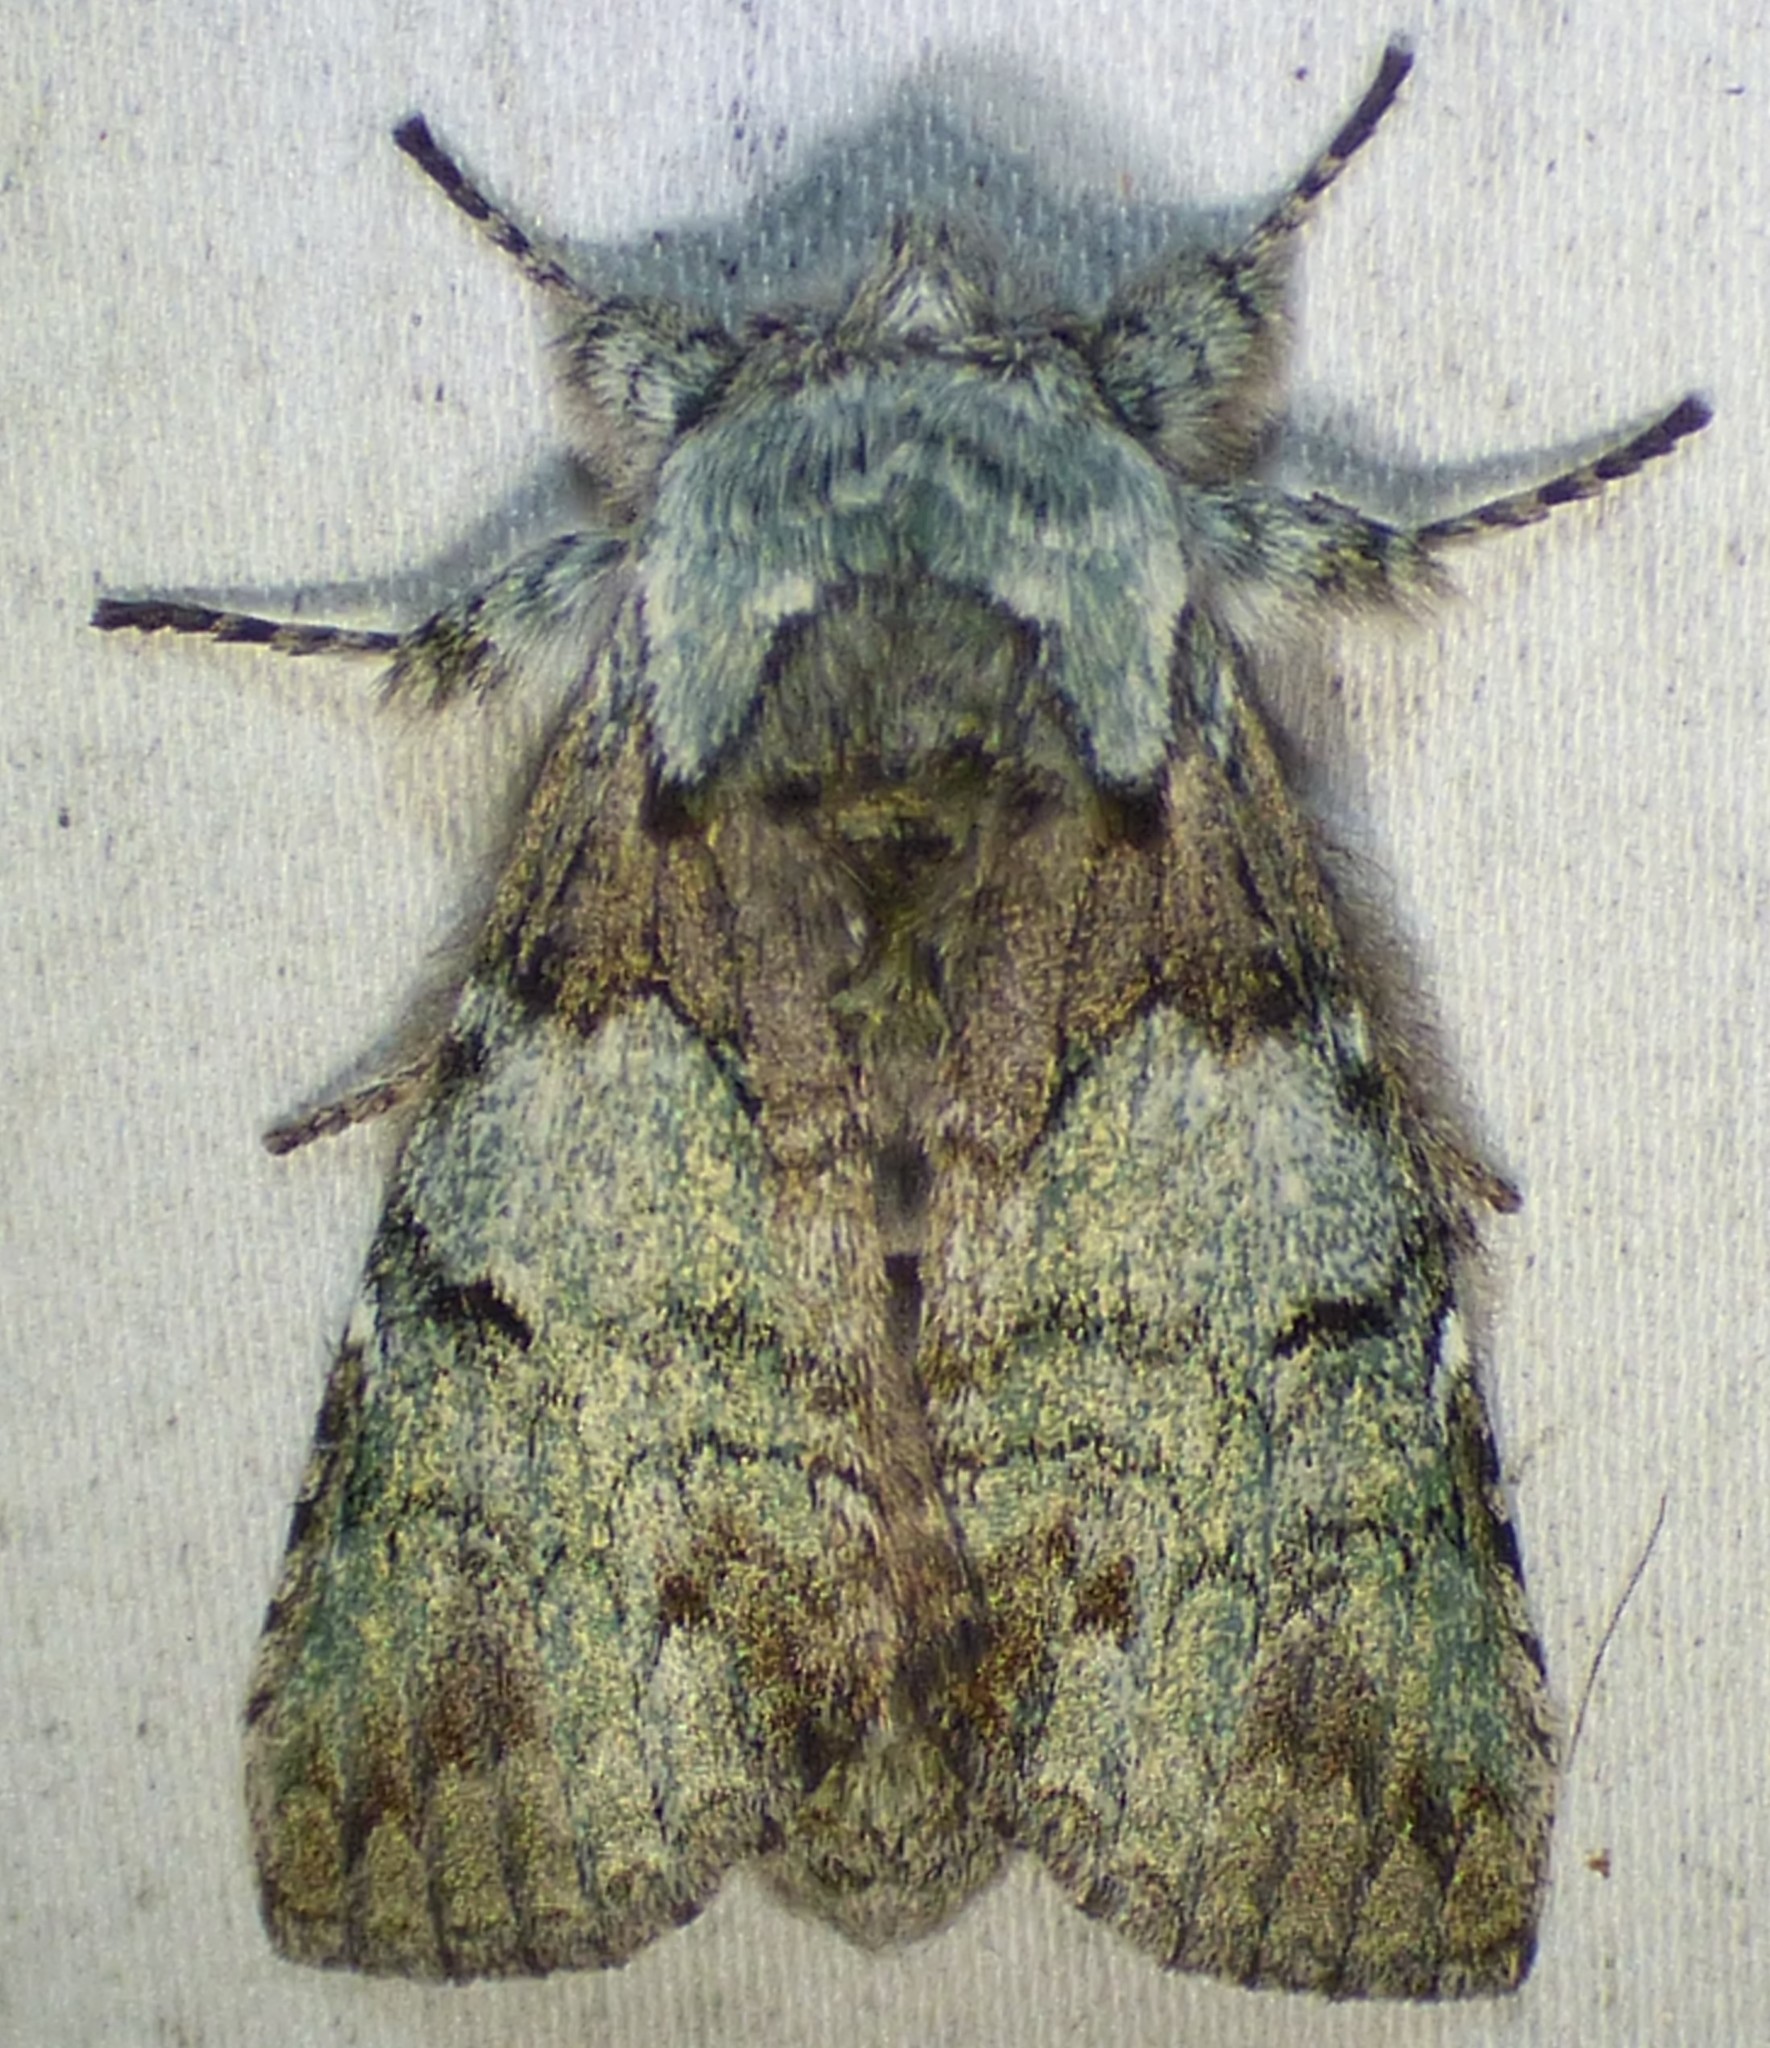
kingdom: Animalia
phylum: Arthropoda
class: Insecta
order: Lepidoptera
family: Notodontidae
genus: Macrurocampa
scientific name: Macrurocampa marthesia
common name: Mottled prominent
